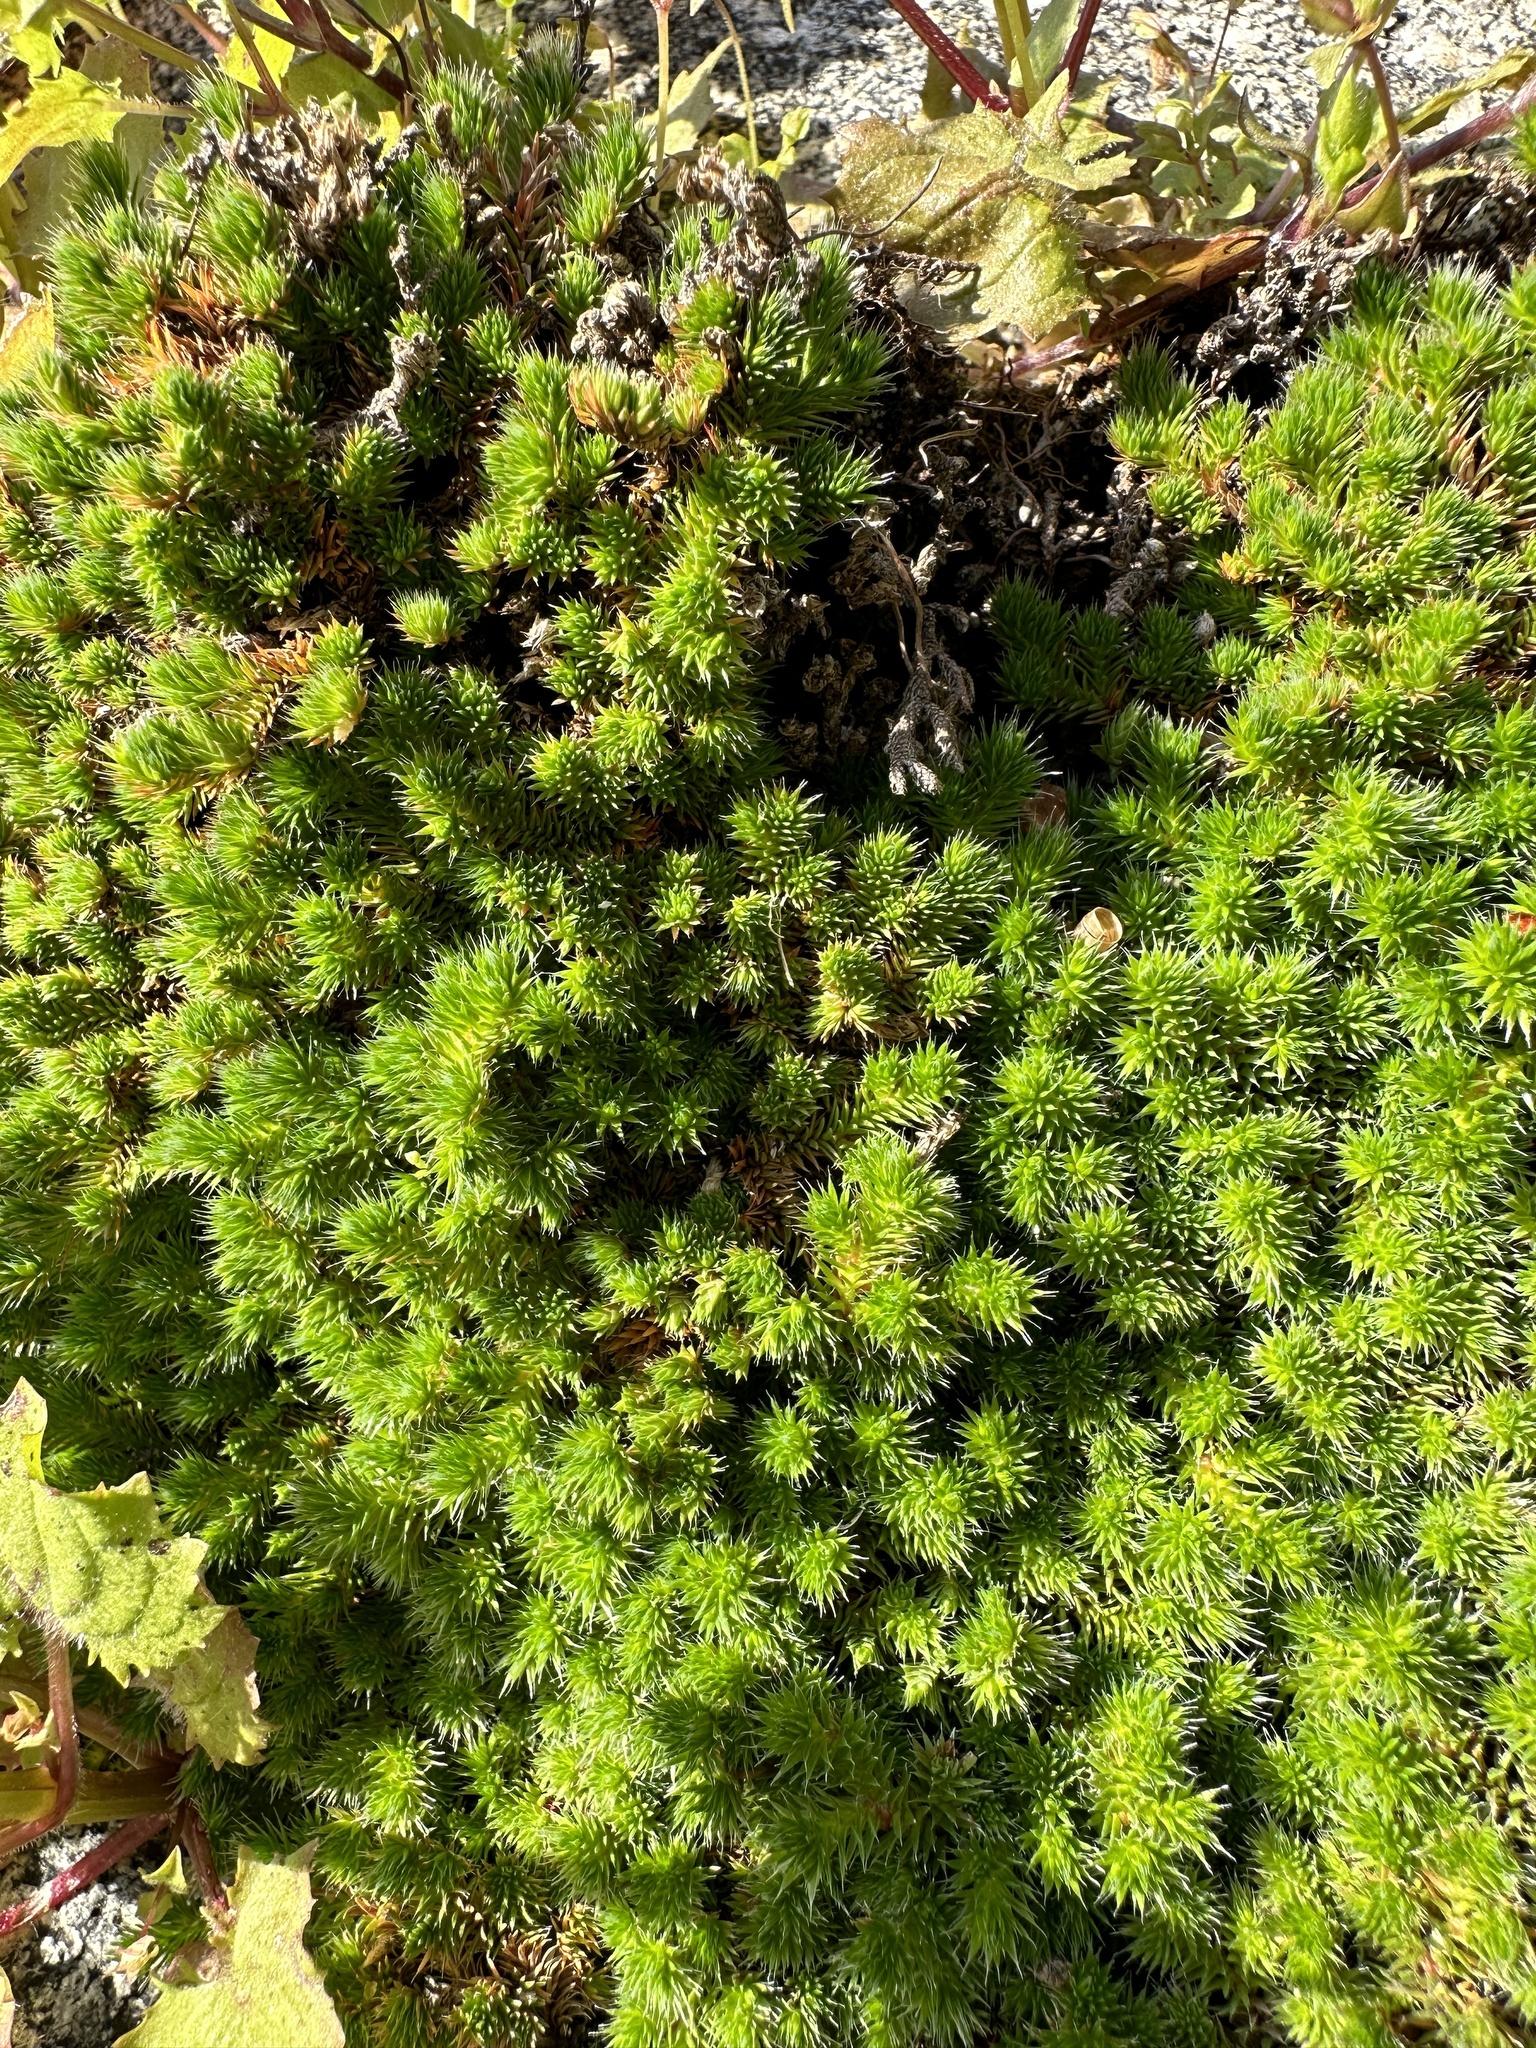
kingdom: Plantae
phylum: Tracheophyta
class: Lycopodiopsida
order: Selaginellales
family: Selaginellaceae
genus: Selaginella
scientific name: Selaginella hansenii
